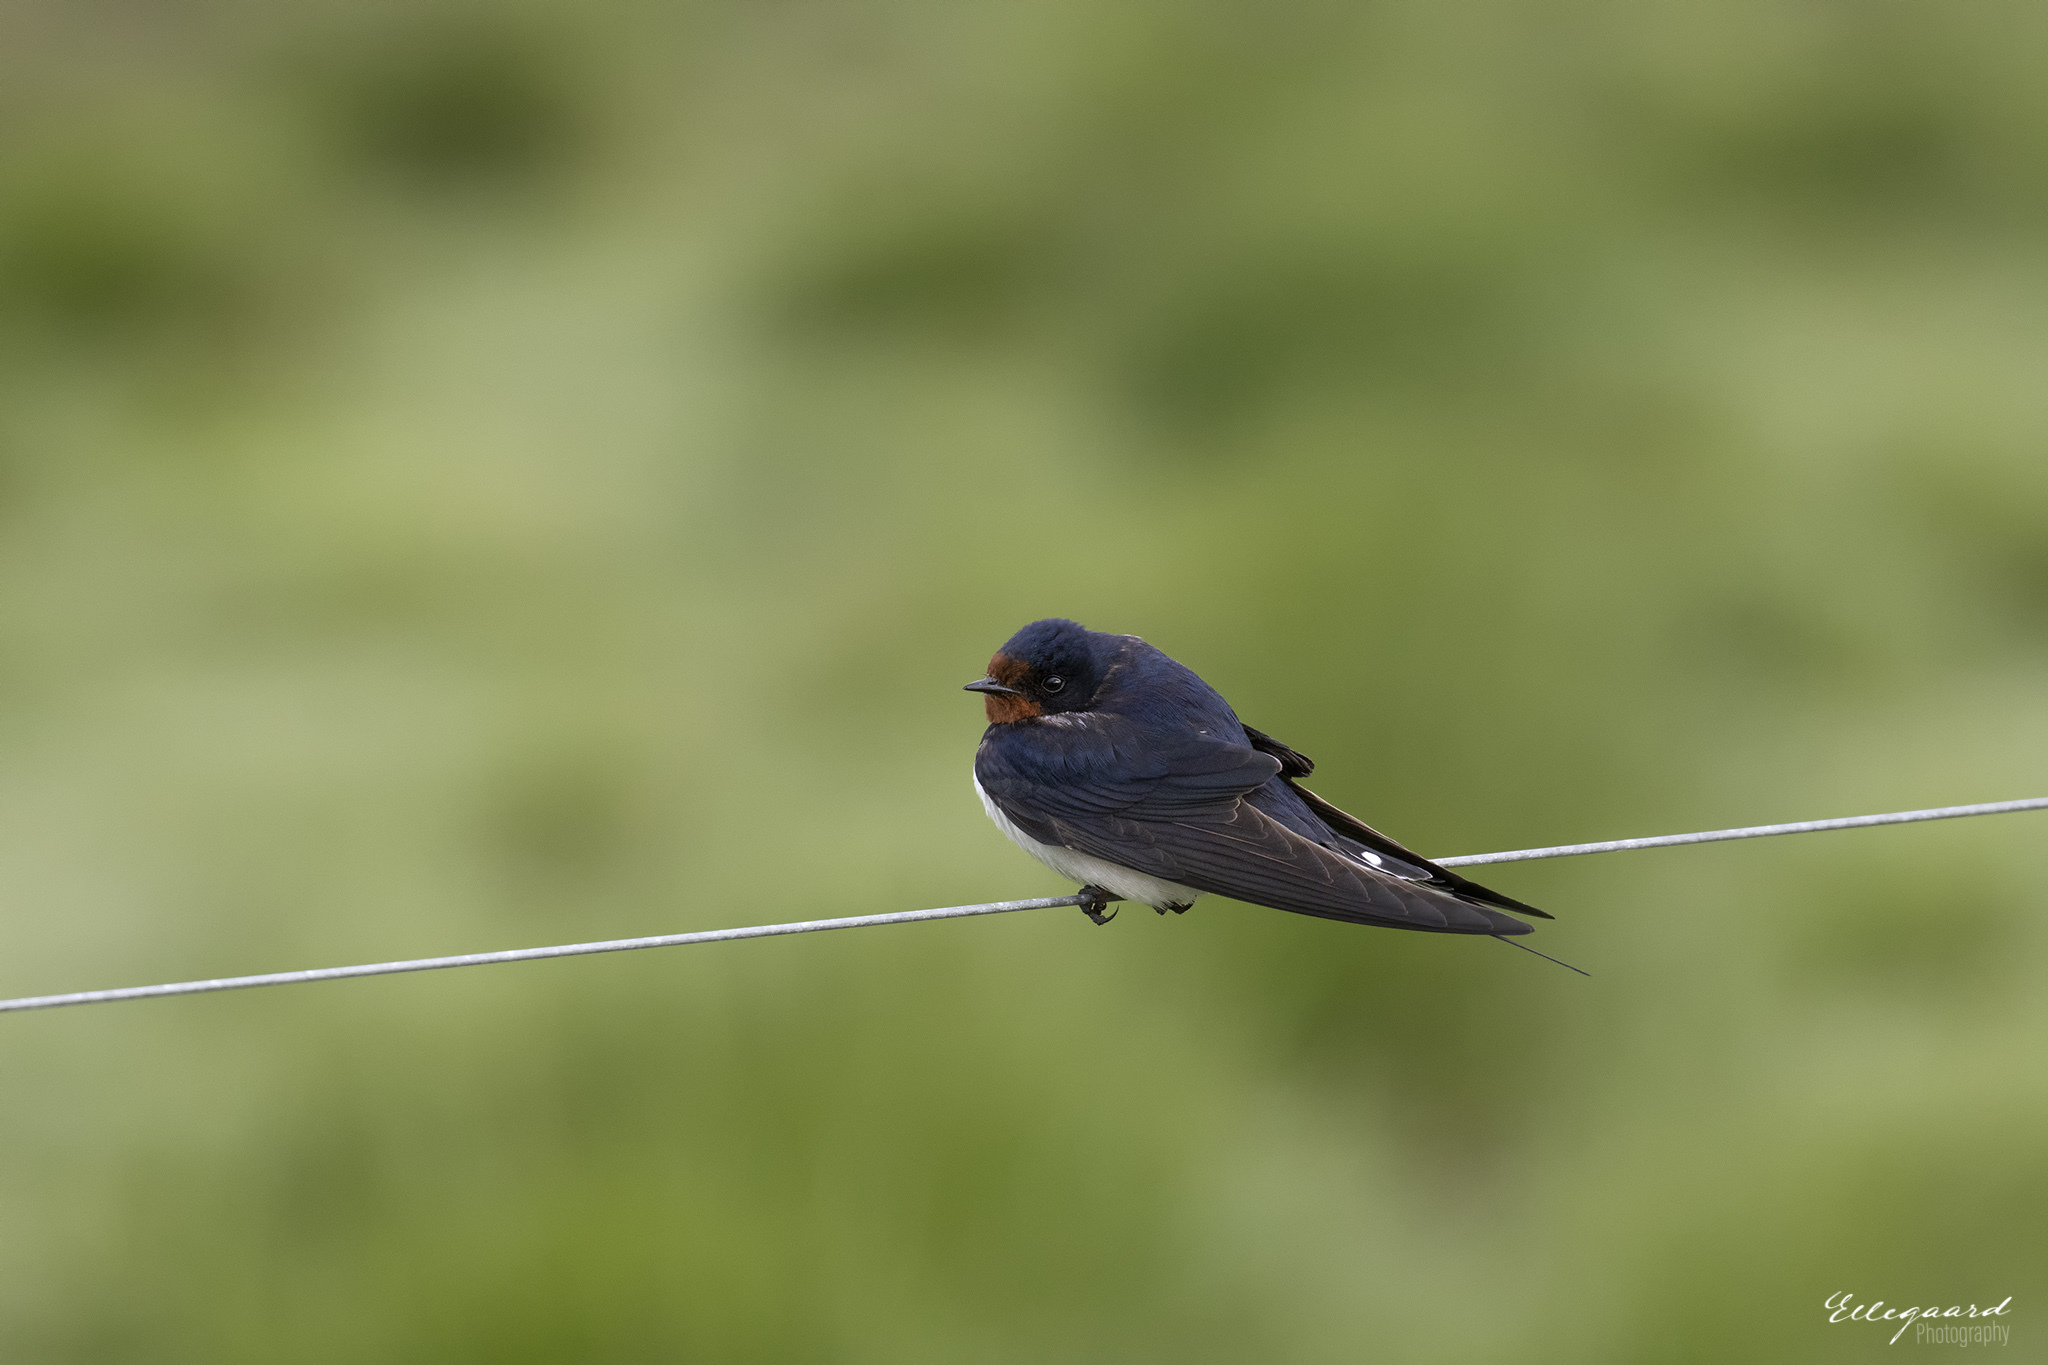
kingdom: Animalia
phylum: Chordata
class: Aves
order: Passeriformes
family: Hirundinidae
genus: Hirundo
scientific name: Hirundo rustica
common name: Barn swallow
